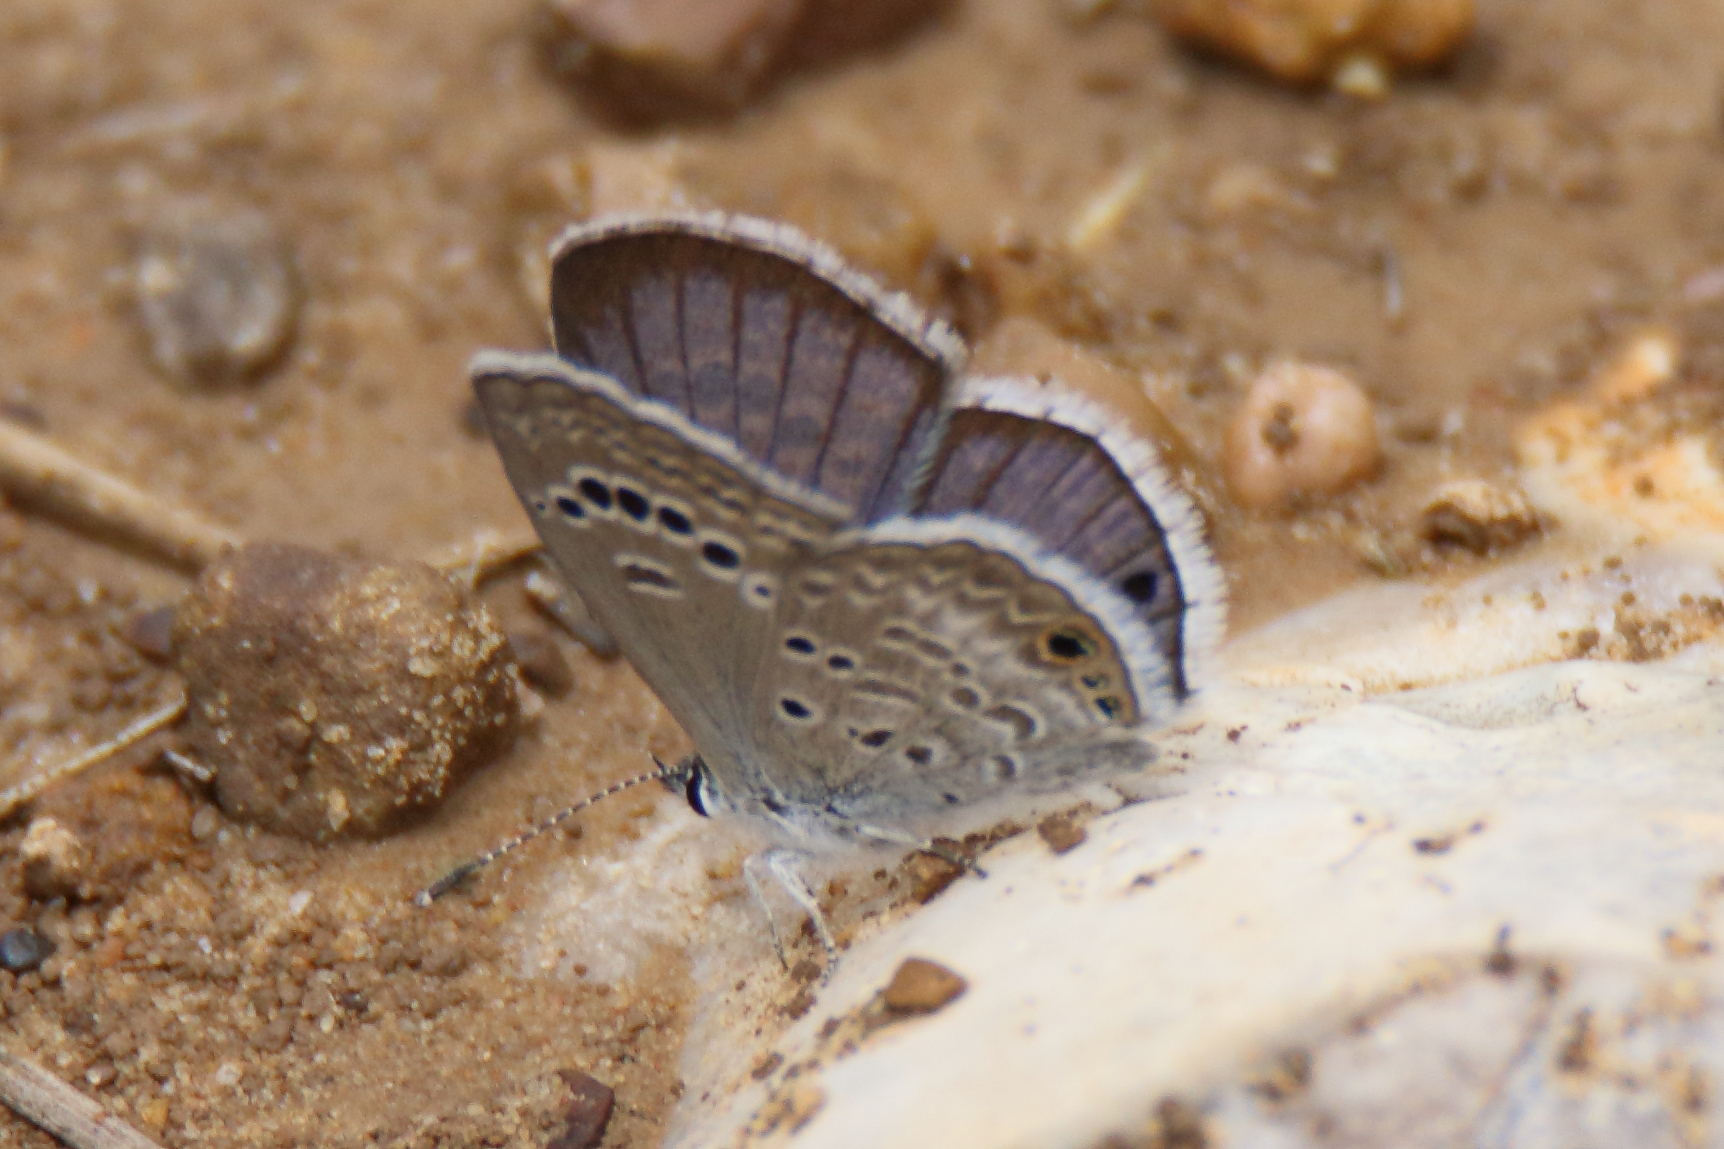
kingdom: Animalia
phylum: Arthropoda
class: Insecta
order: Lepidoptera
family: Lycaenidae
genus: Echinargus
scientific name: Echinargus isola
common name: Reakirt's blue
